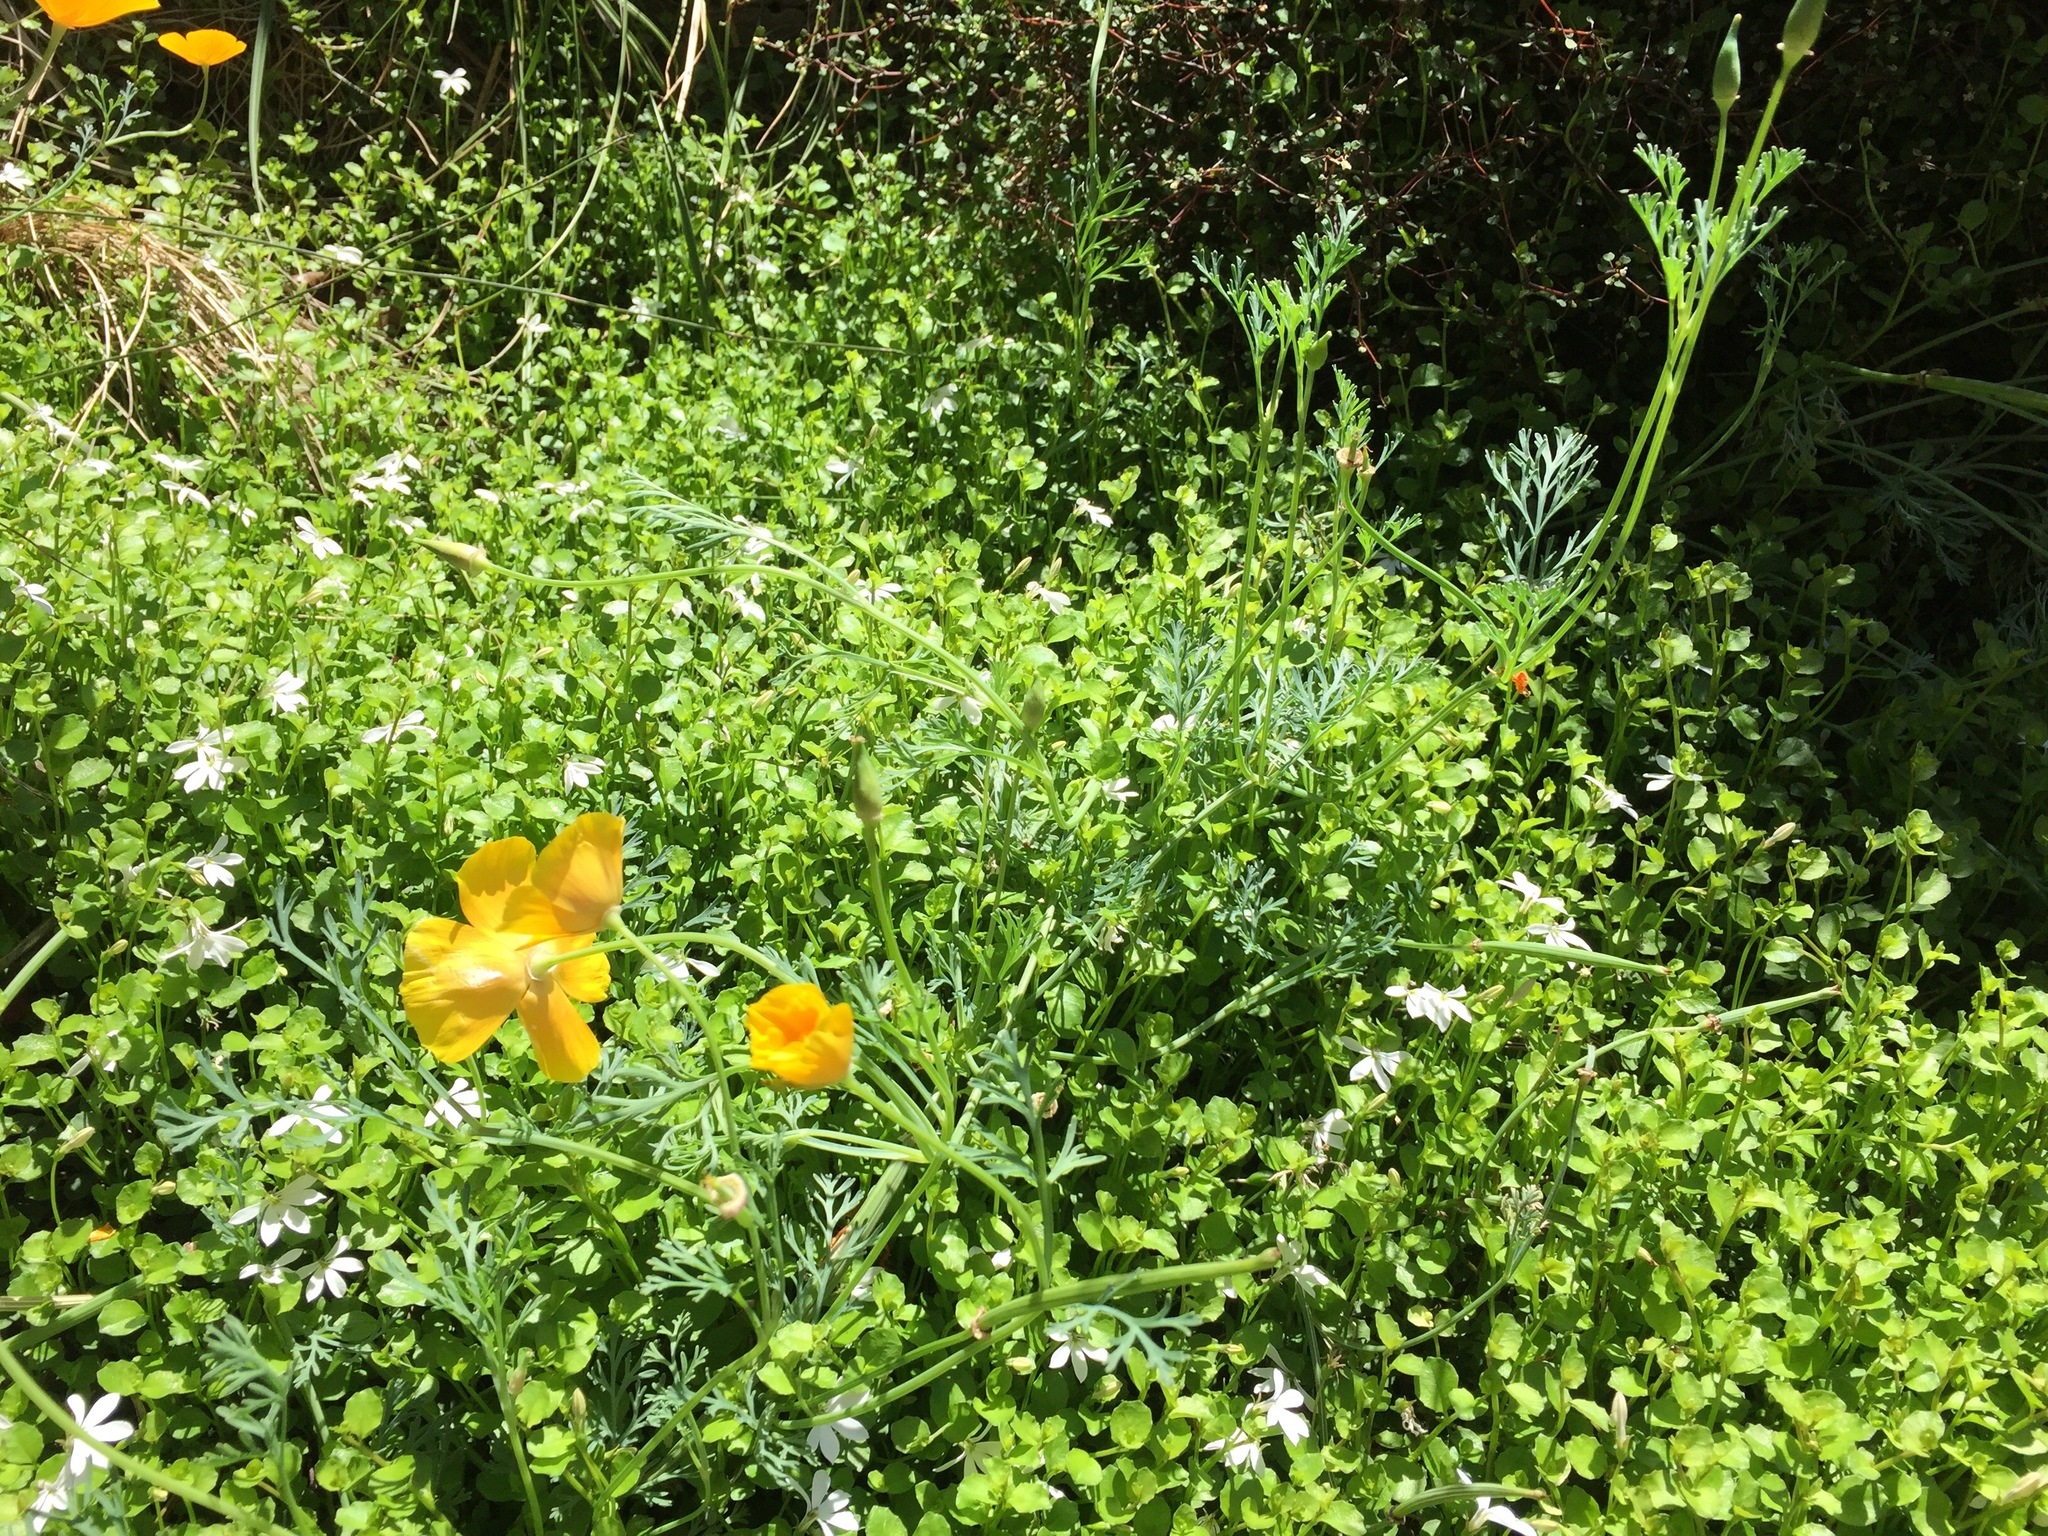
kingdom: Plantae
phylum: Tracheophyta
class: Magnoliopsida
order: Ranunculales
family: Papaveraceae
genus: Eschscholzia
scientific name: Eschscholzia californica
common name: California poppy
